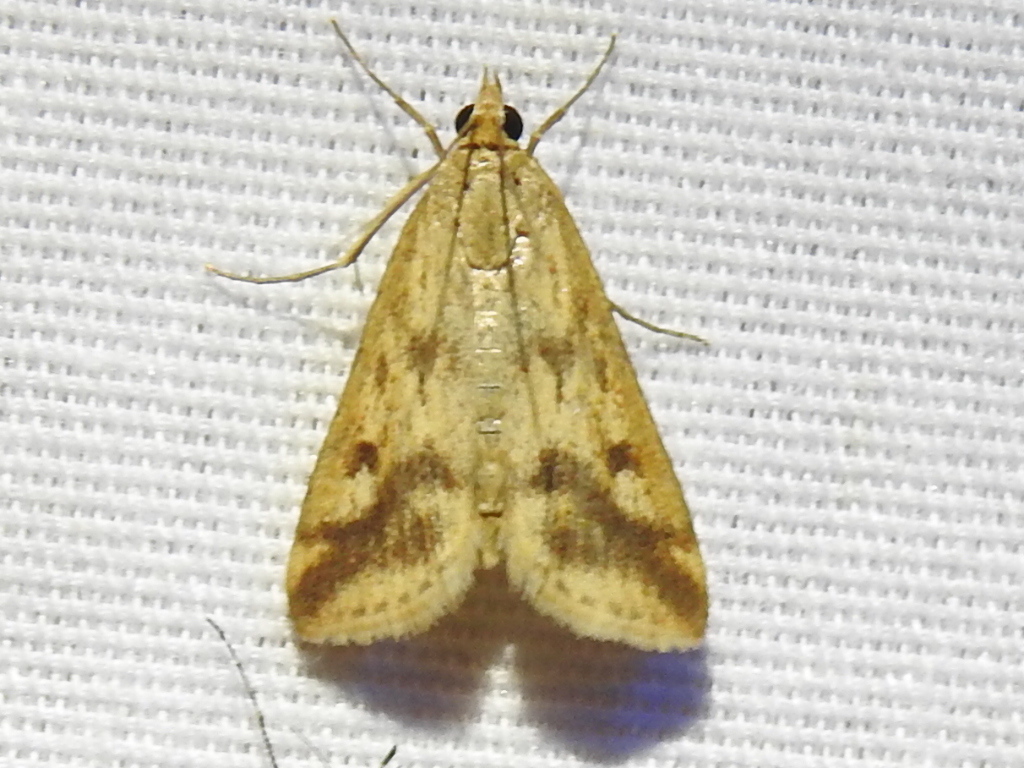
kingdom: Animalia
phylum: Arthropoda
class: Insecta
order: Lepidoptera
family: Crambidae
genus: Achyra
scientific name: Achyra bifidalis
